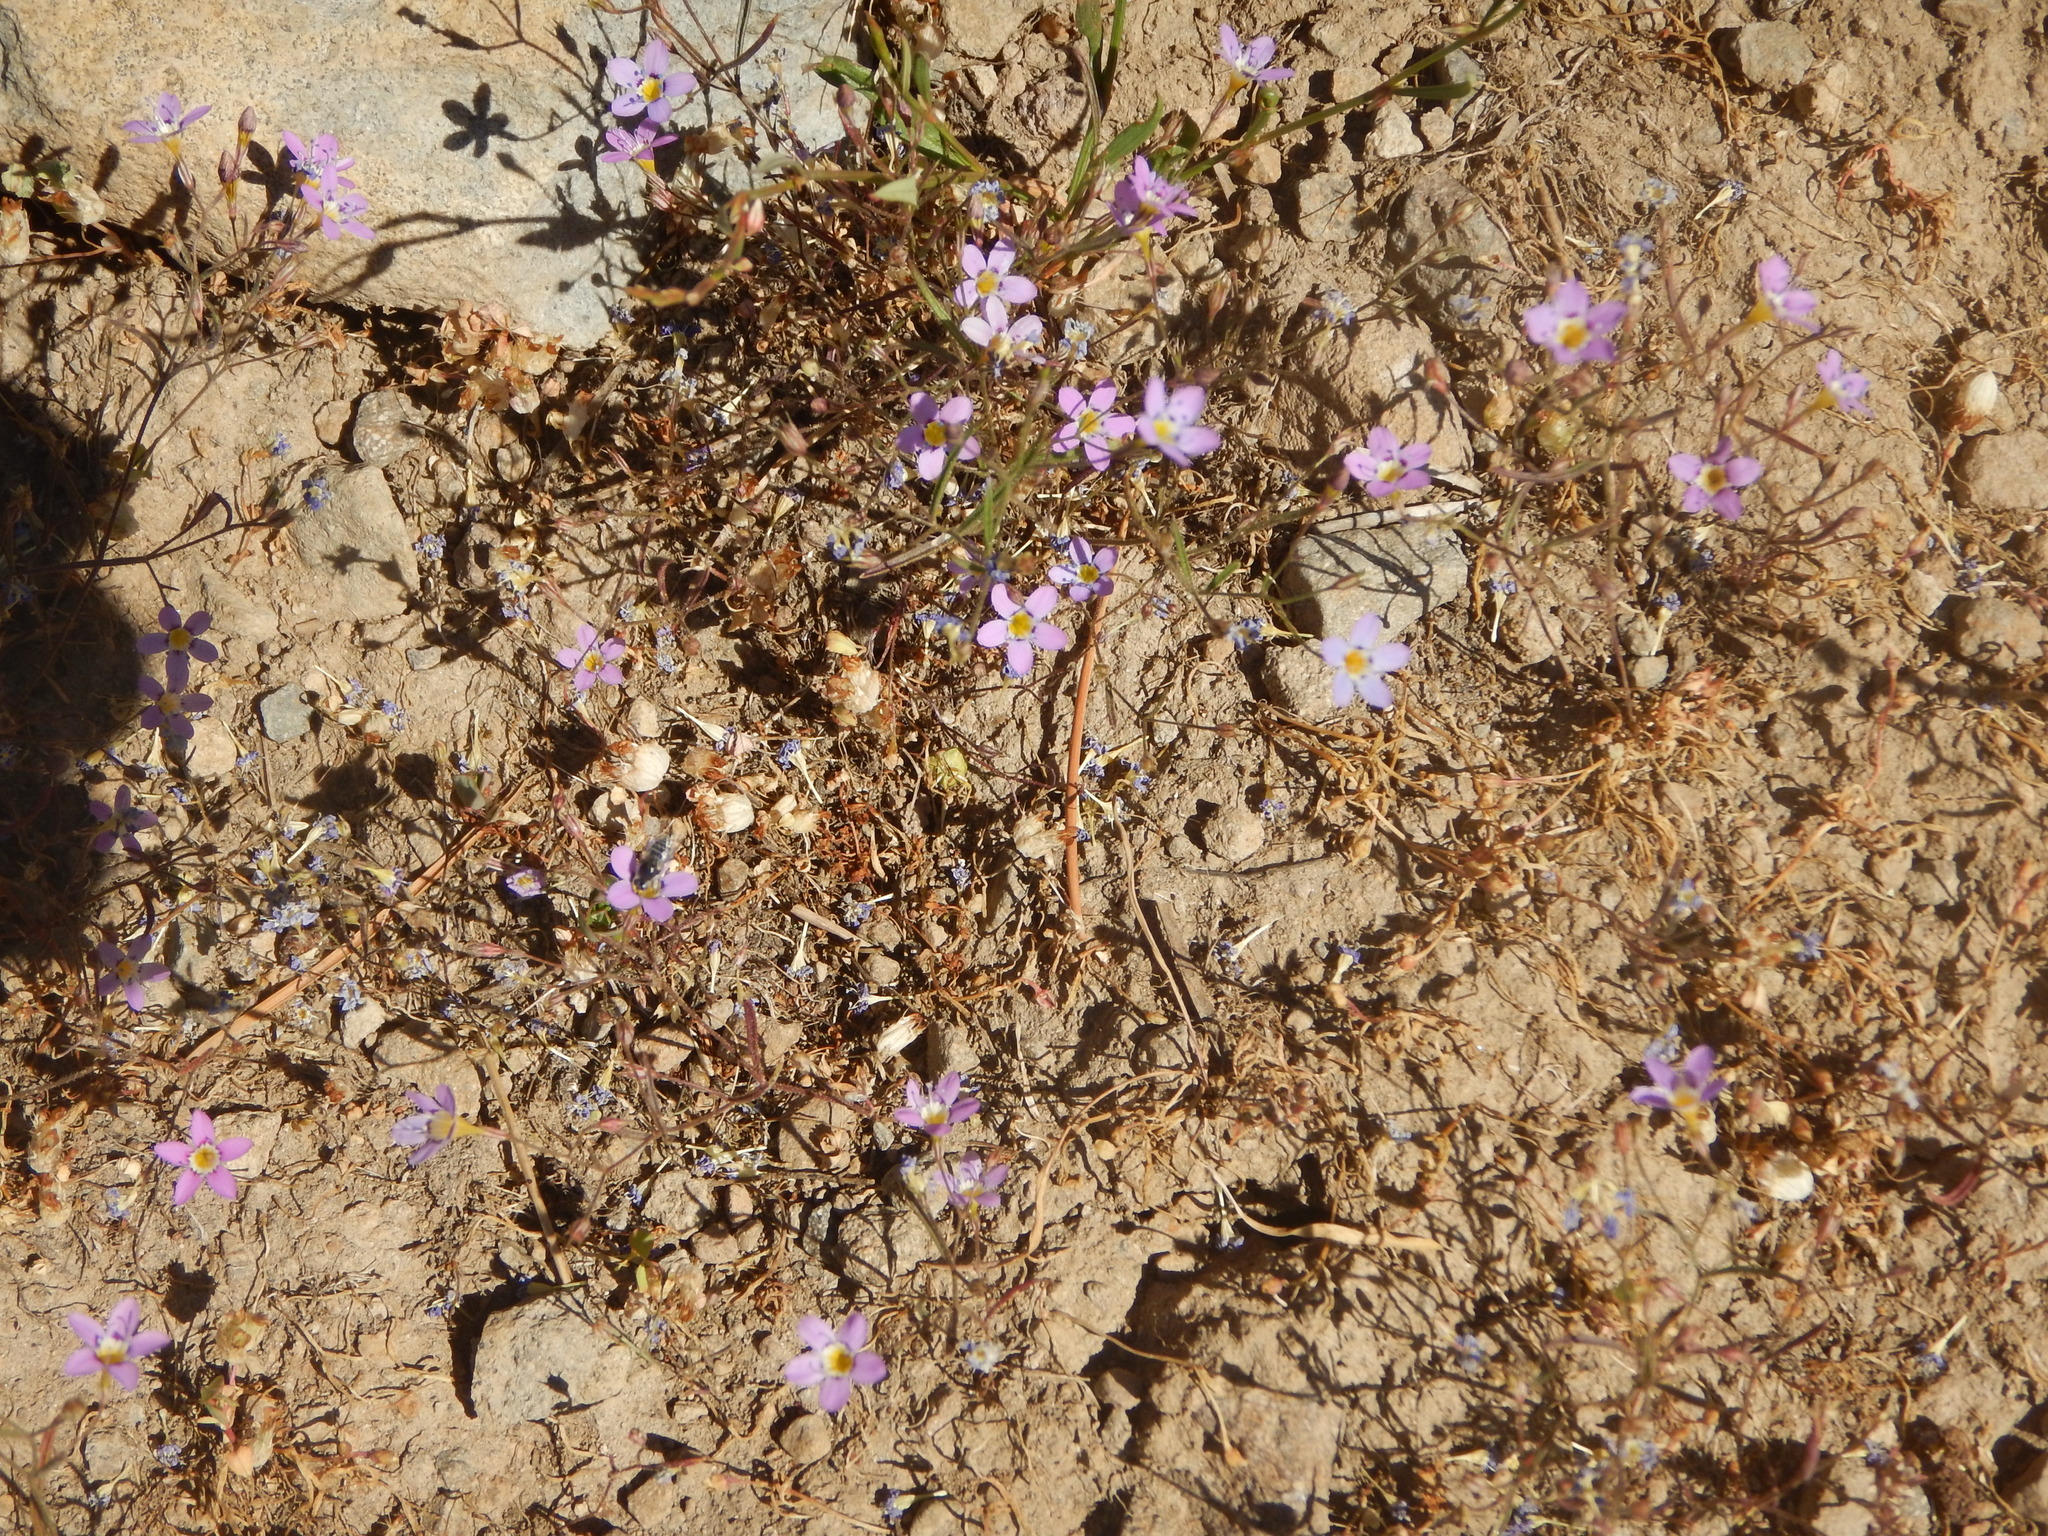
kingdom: Plantae
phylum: Tracheophyta
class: Magnoliopsida
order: Ericales
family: Polemoniaceae
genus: Navarretia
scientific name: Navarretia leptalea
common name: Bridges' pincushionplant
